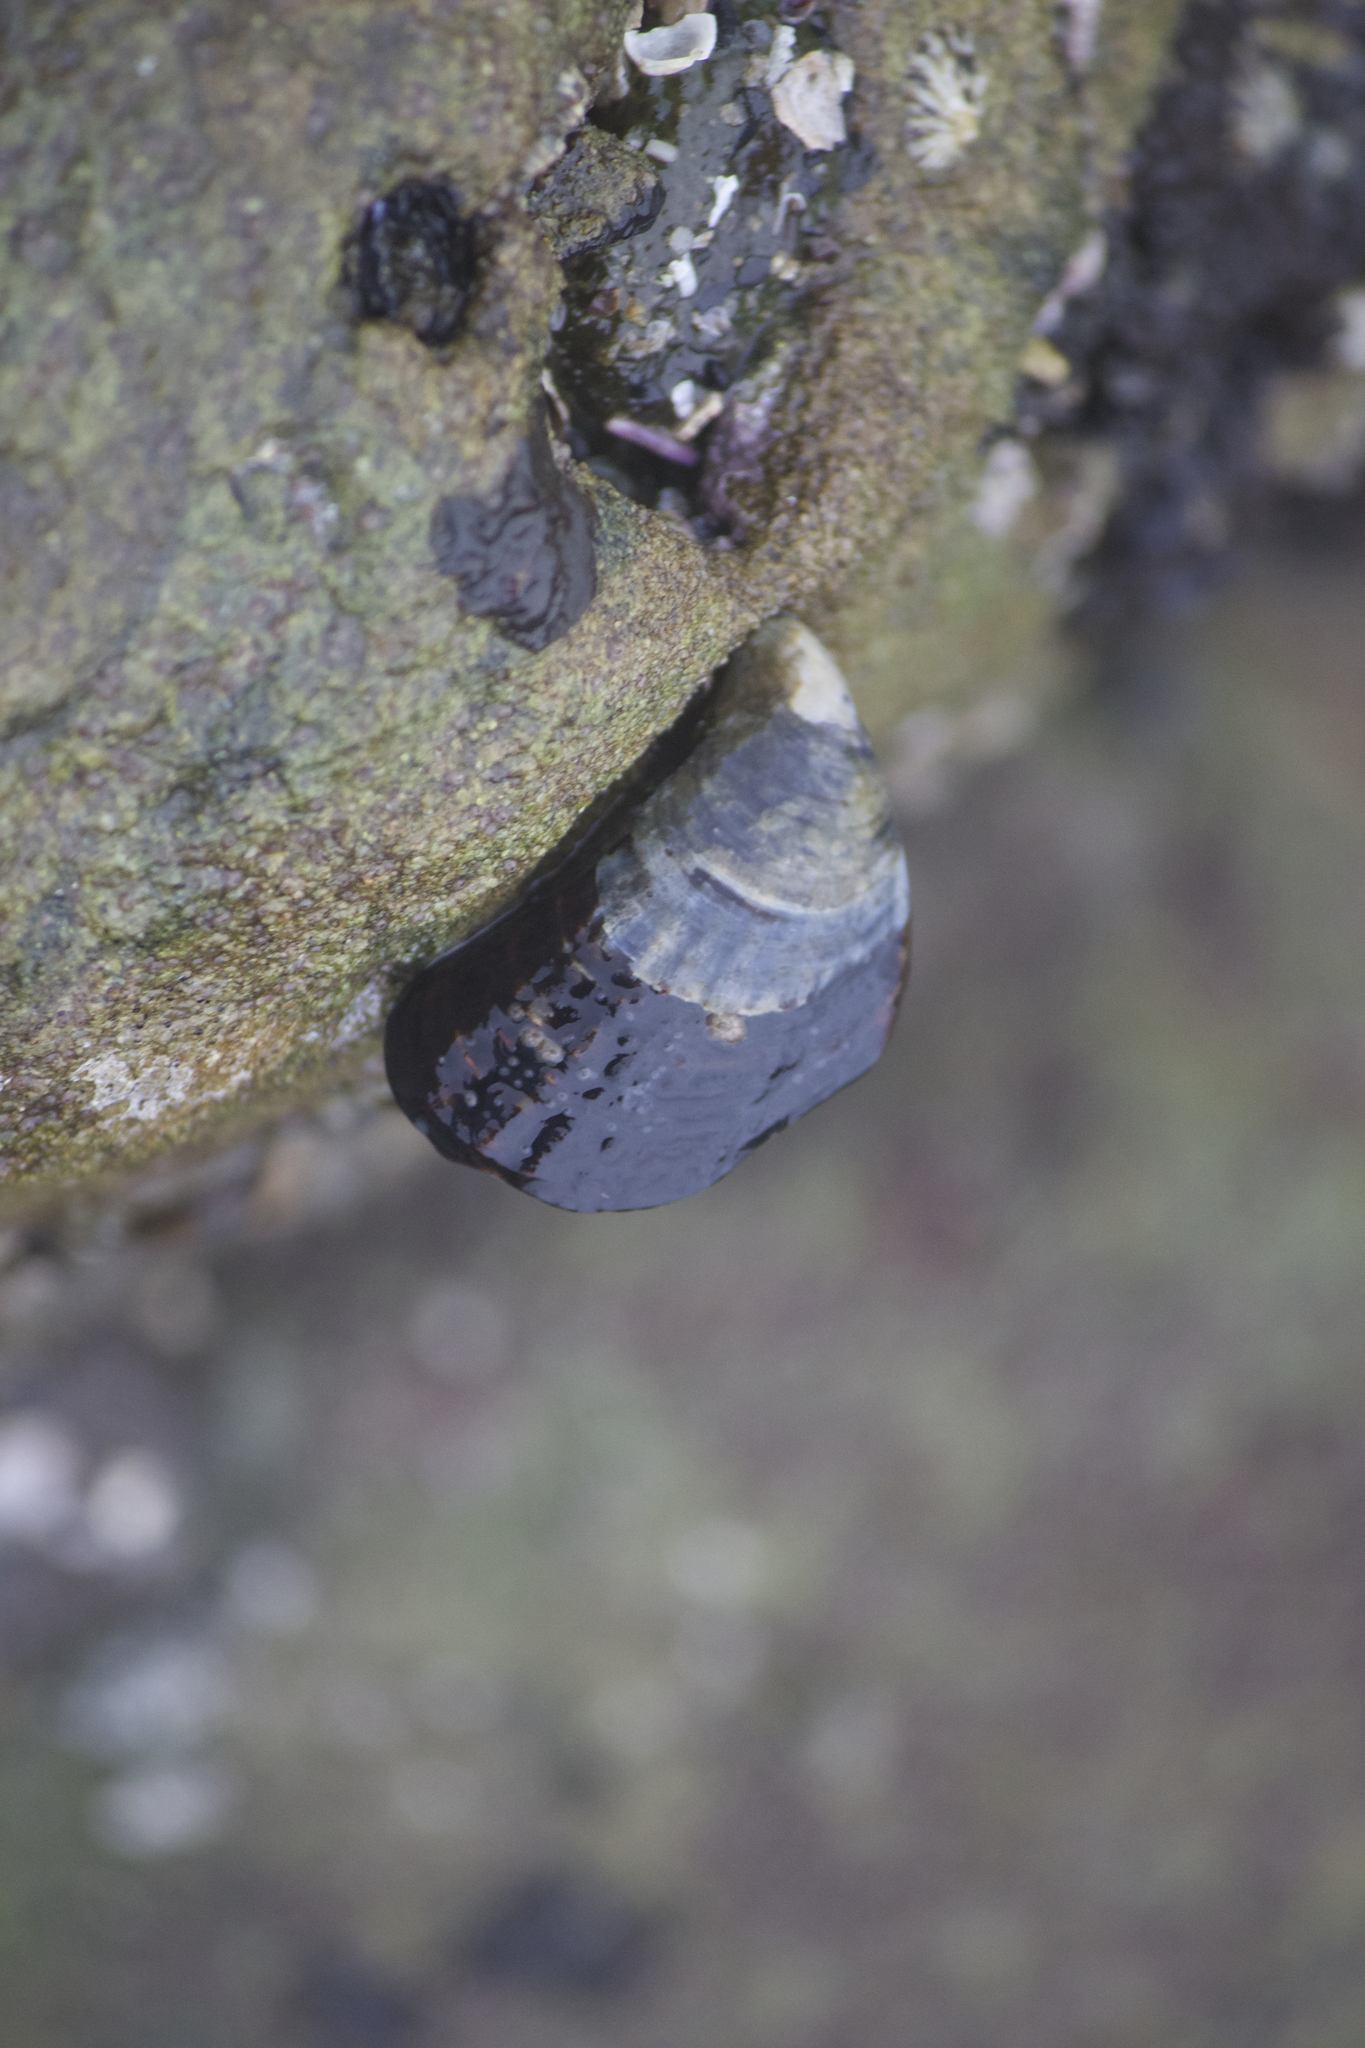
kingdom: Animalia
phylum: Mollusca
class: Bivalvia
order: Mytilida
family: Mytilidae
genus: Mytilus
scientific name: Mytilus californianus
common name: California mussel
